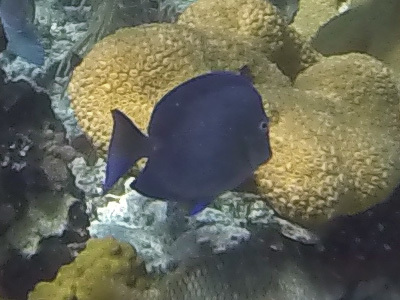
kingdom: Animalia
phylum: Chordata
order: Perciformes
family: Acanthuridae
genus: Acanthurus
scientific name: Acanthurus coeruleus
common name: Blue tang
